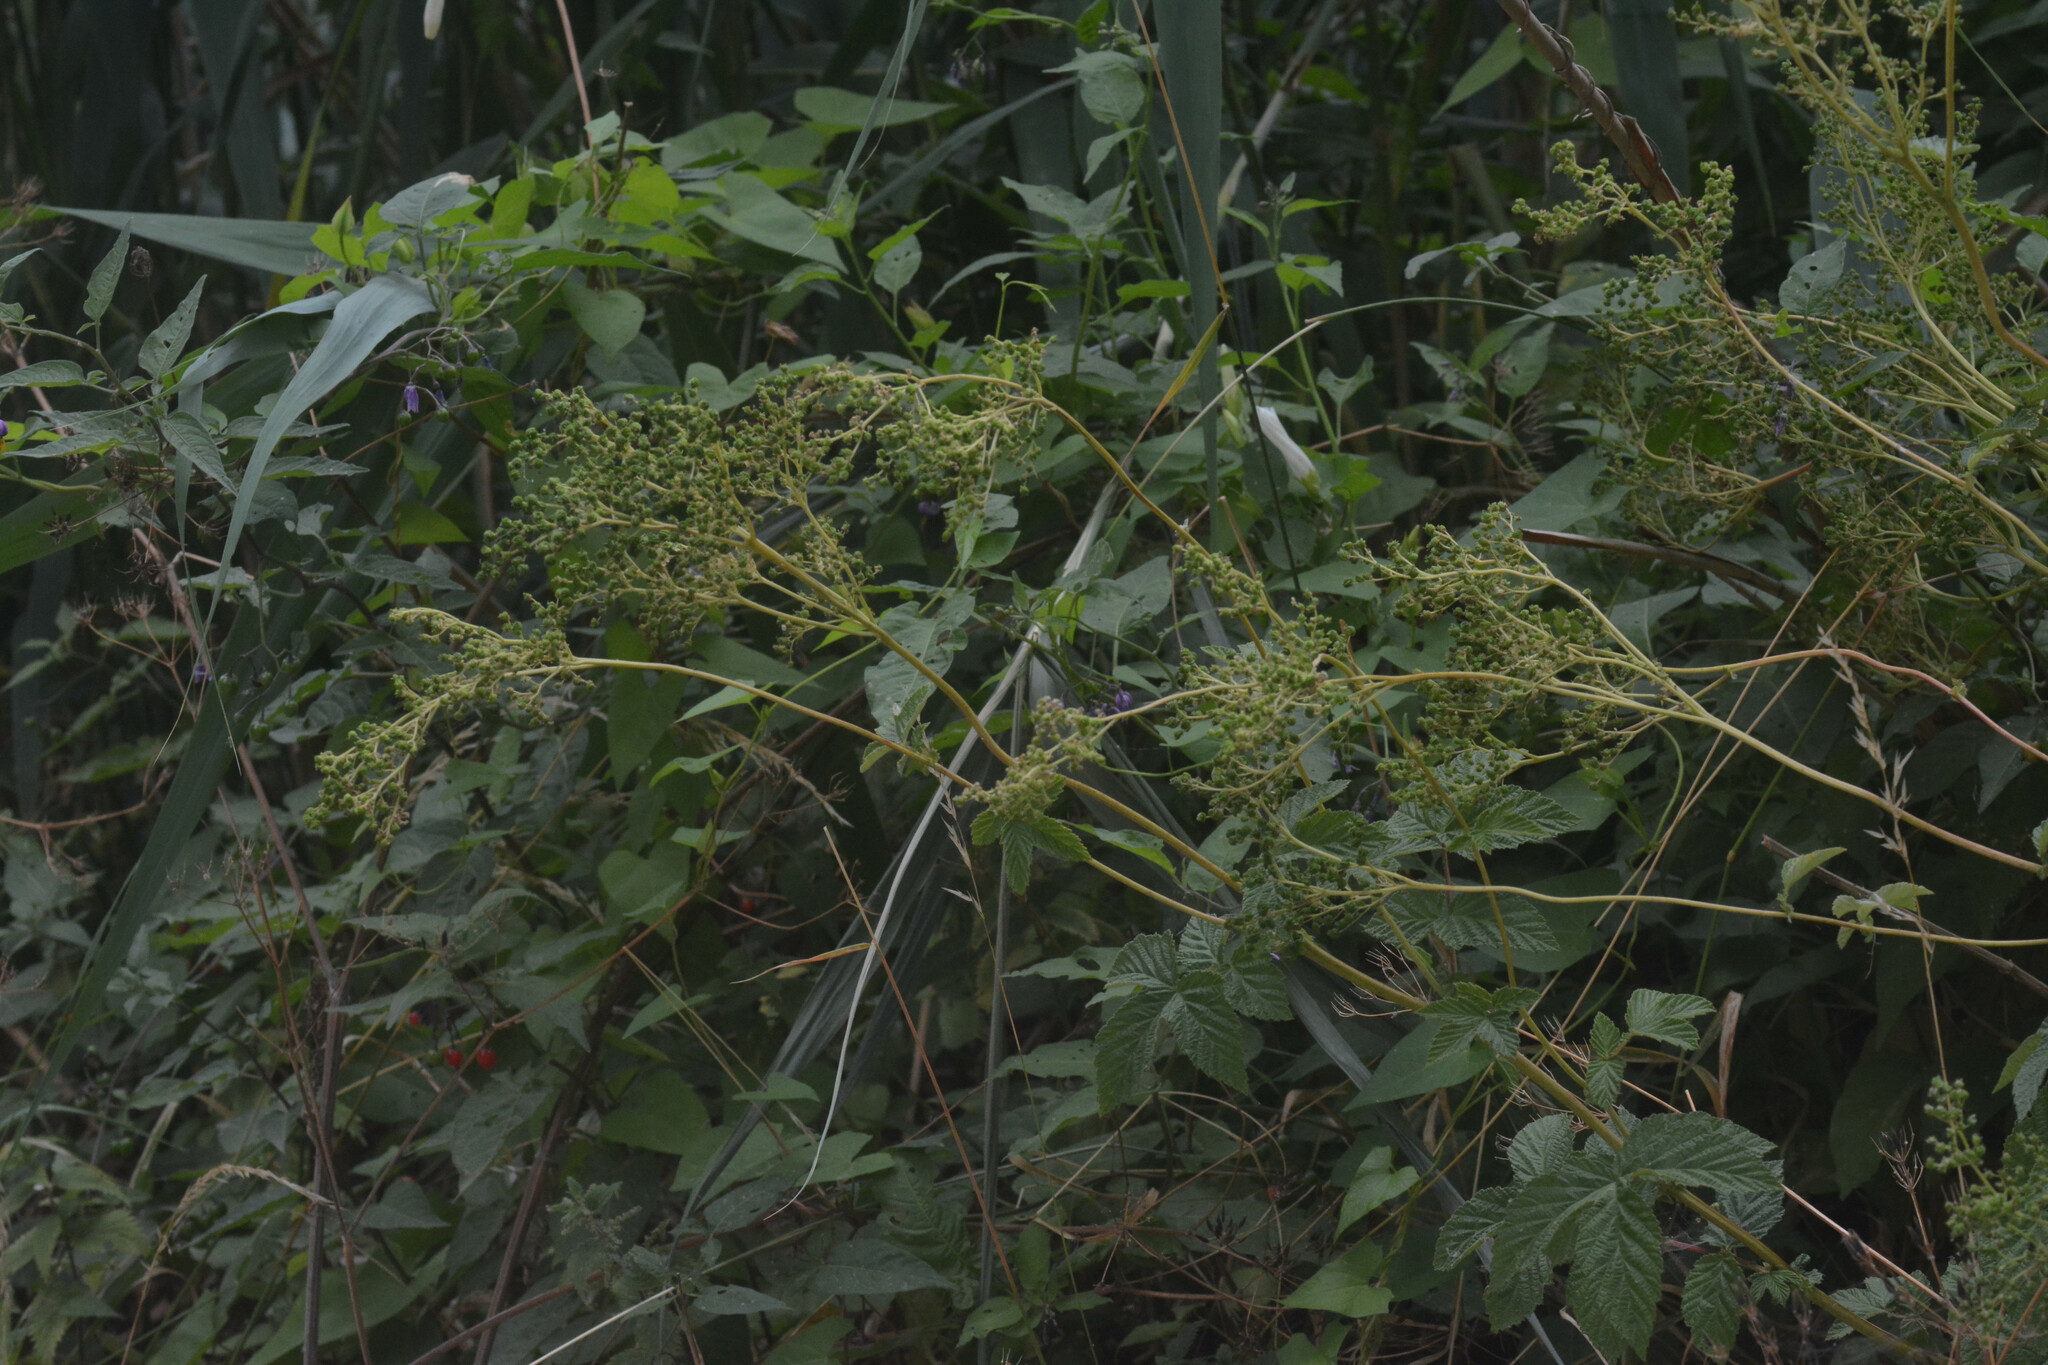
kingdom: Plantae
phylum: Tracheophyta
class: Magnoliopsida
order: Rosales
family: Rosaceae
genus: Filipendula
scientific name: Filipendula ulmaria
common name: Meadowsweet
